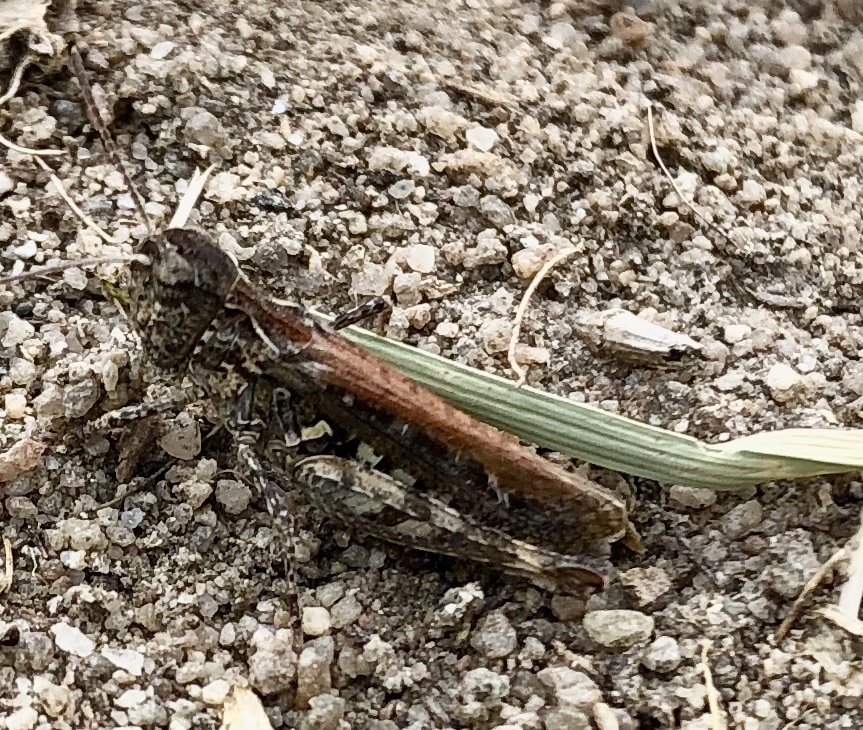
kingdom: Animalia
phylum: Arthropoda
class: Insecta
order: Orthoptera
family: Acrididae
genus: Myrmeleotettix
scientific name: Myrmeleotettix maculatus
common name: Mottled grasshopper
